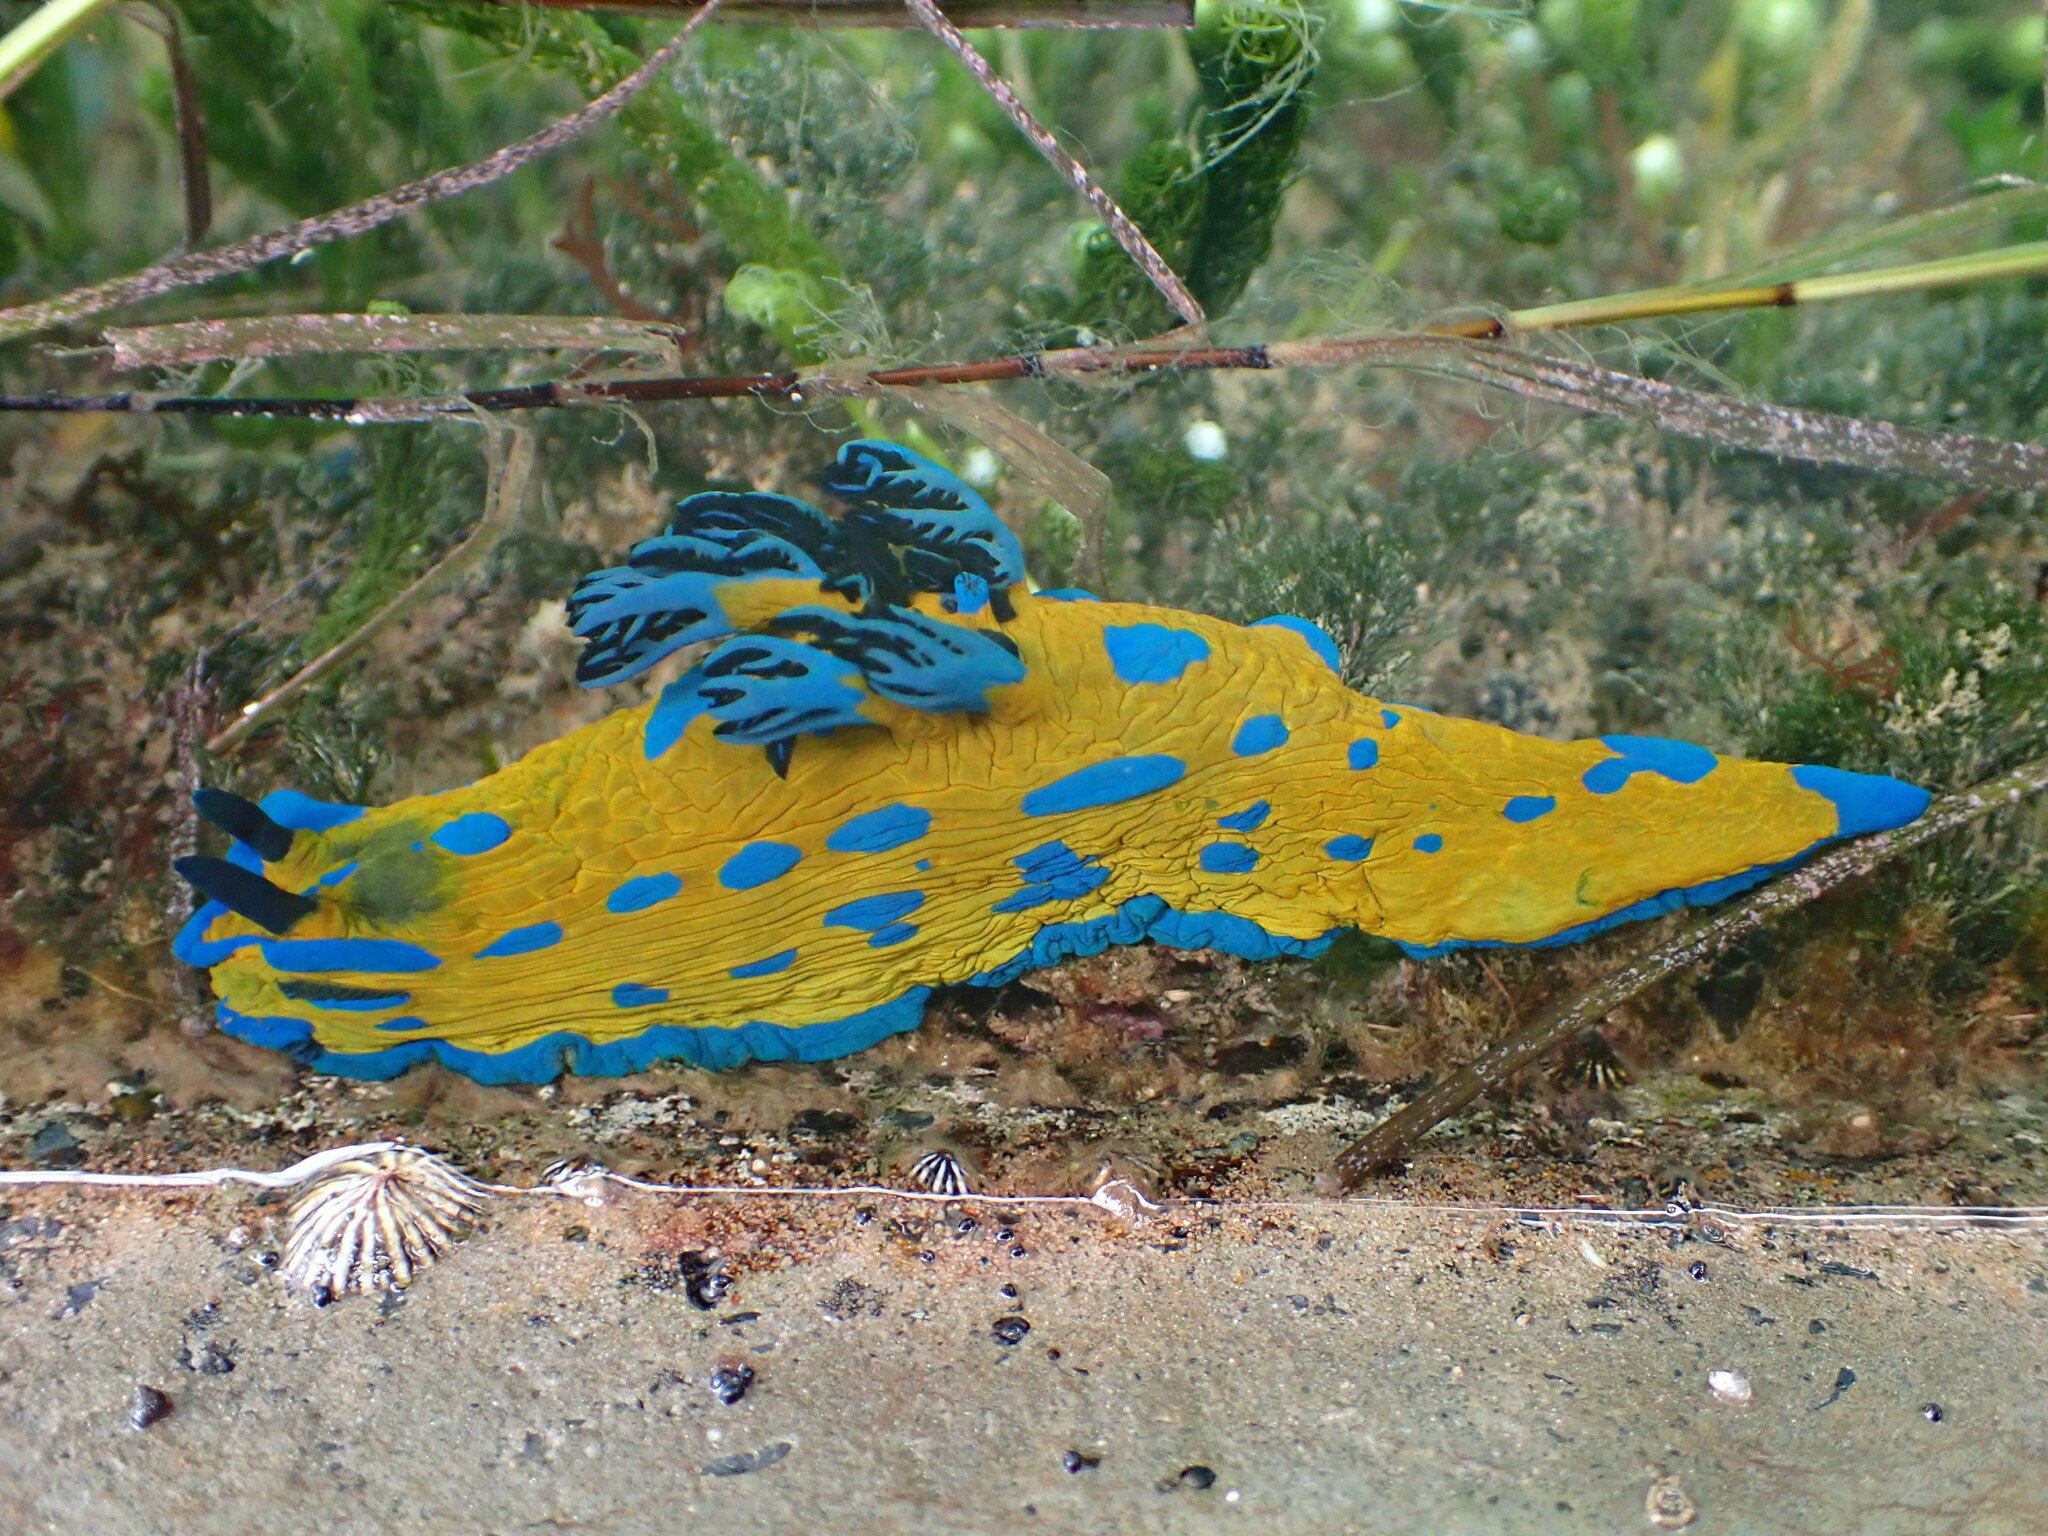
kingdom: Animalia
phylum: Mollusca
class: Gastropoda
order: Nudibranchia
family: Polyceridae
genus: Tambja
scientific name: Tambja verconis
